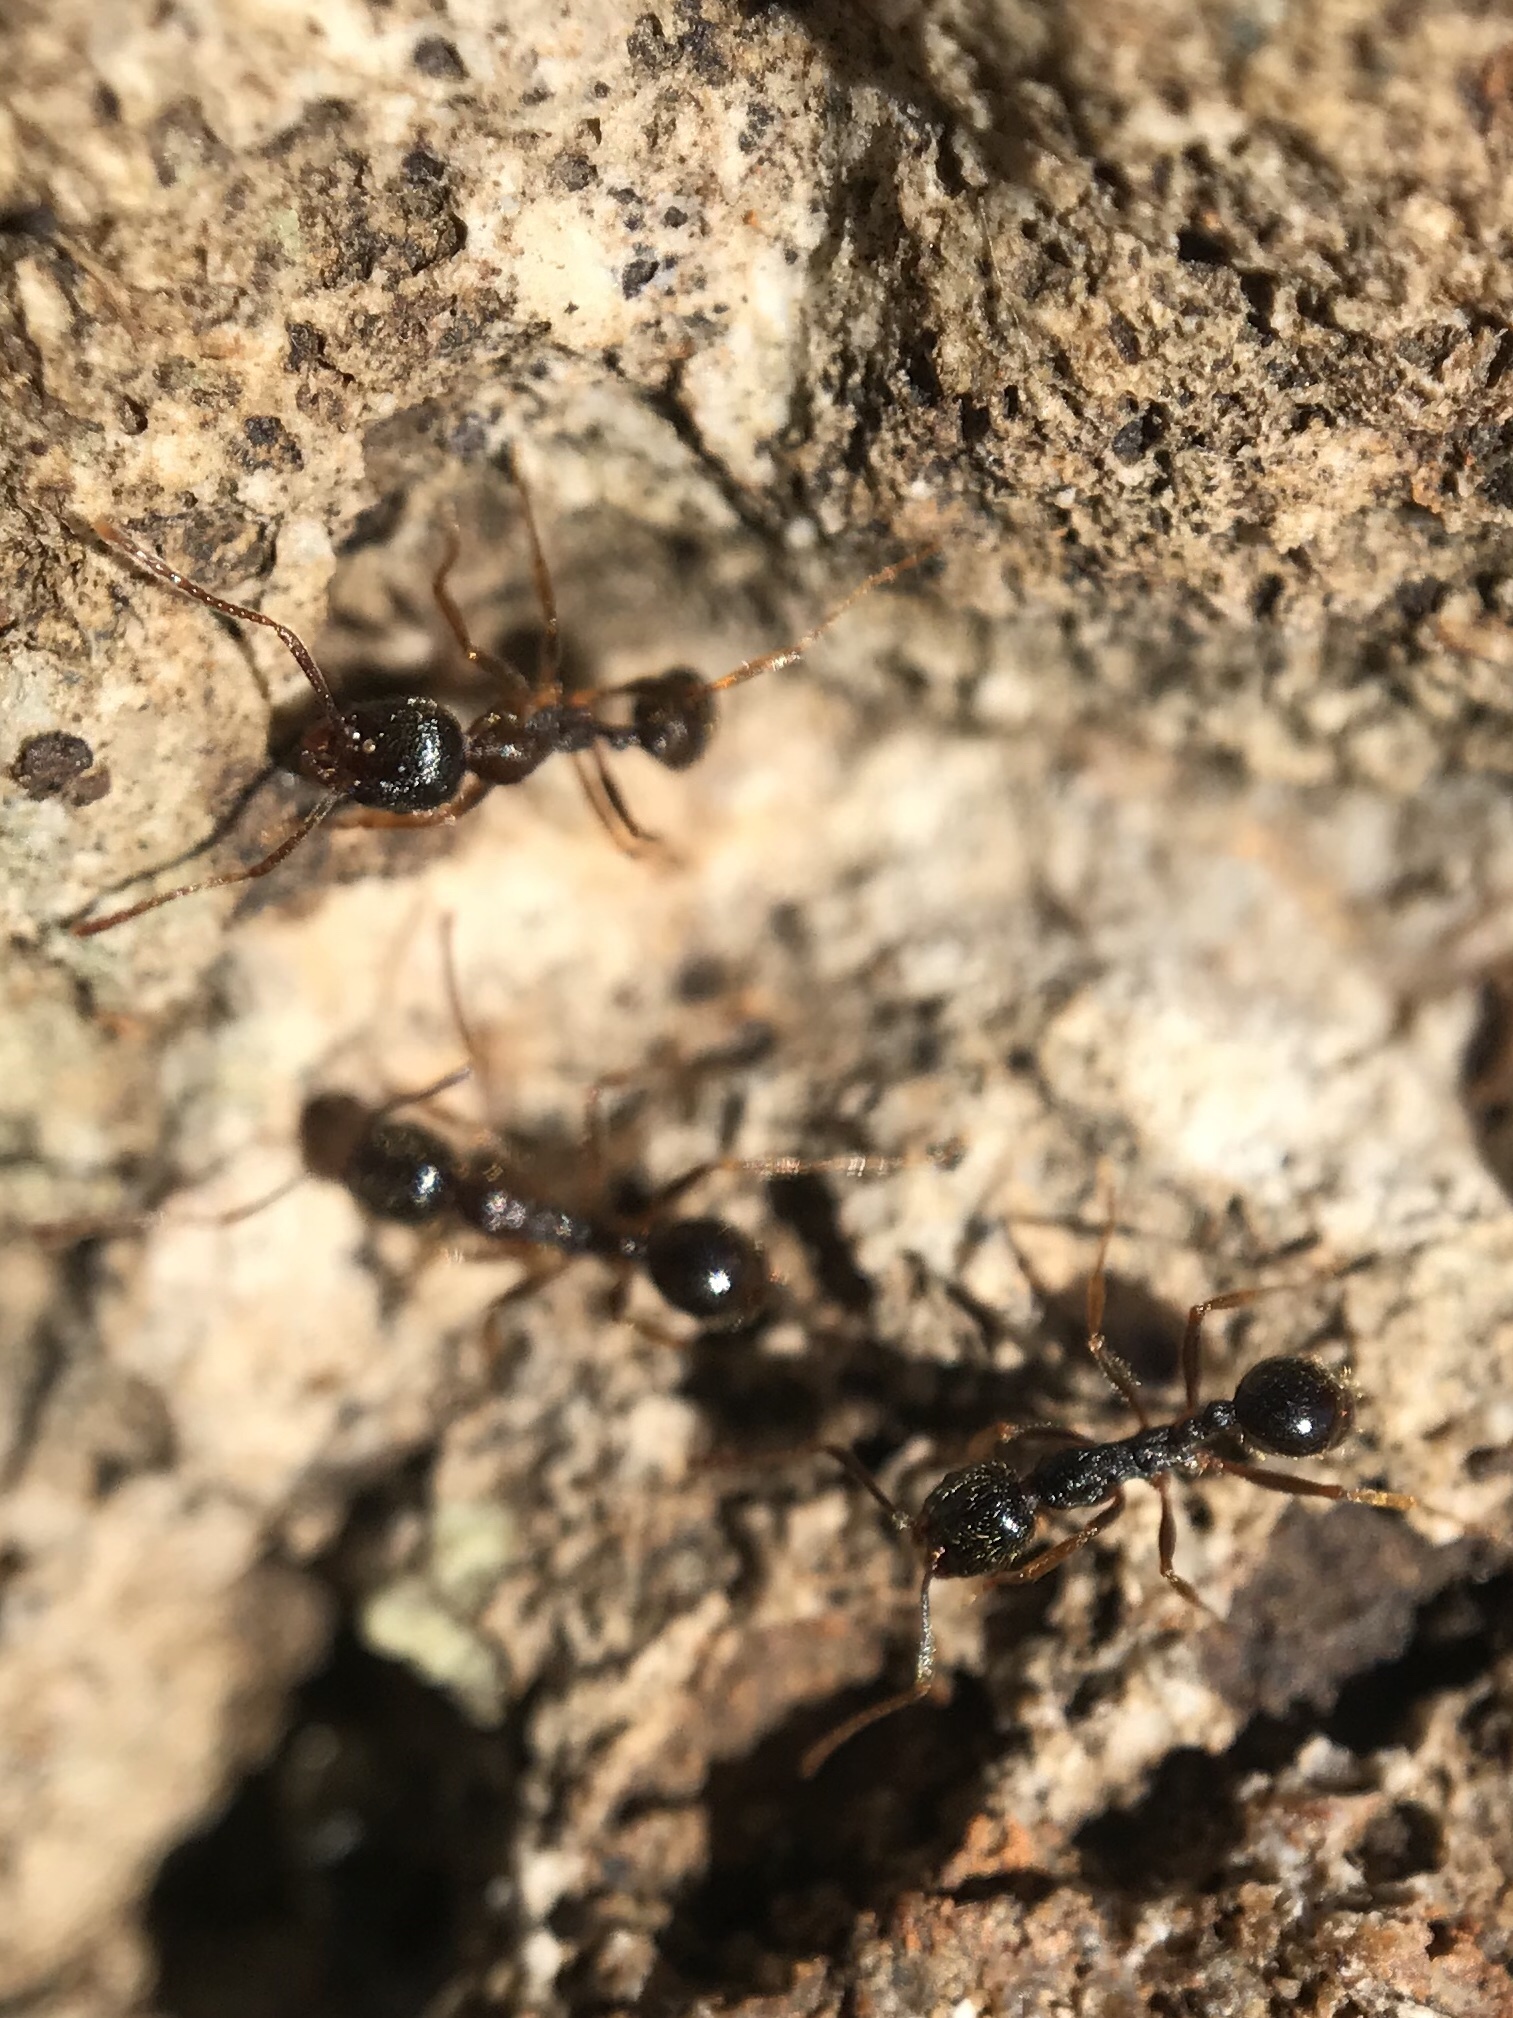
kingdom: Animalia
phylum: Arthropoda
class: Insecta
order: Hymenoptera
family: Formicidae
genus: Aphaenogaster
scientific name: Aphaenogaster occidentalis
